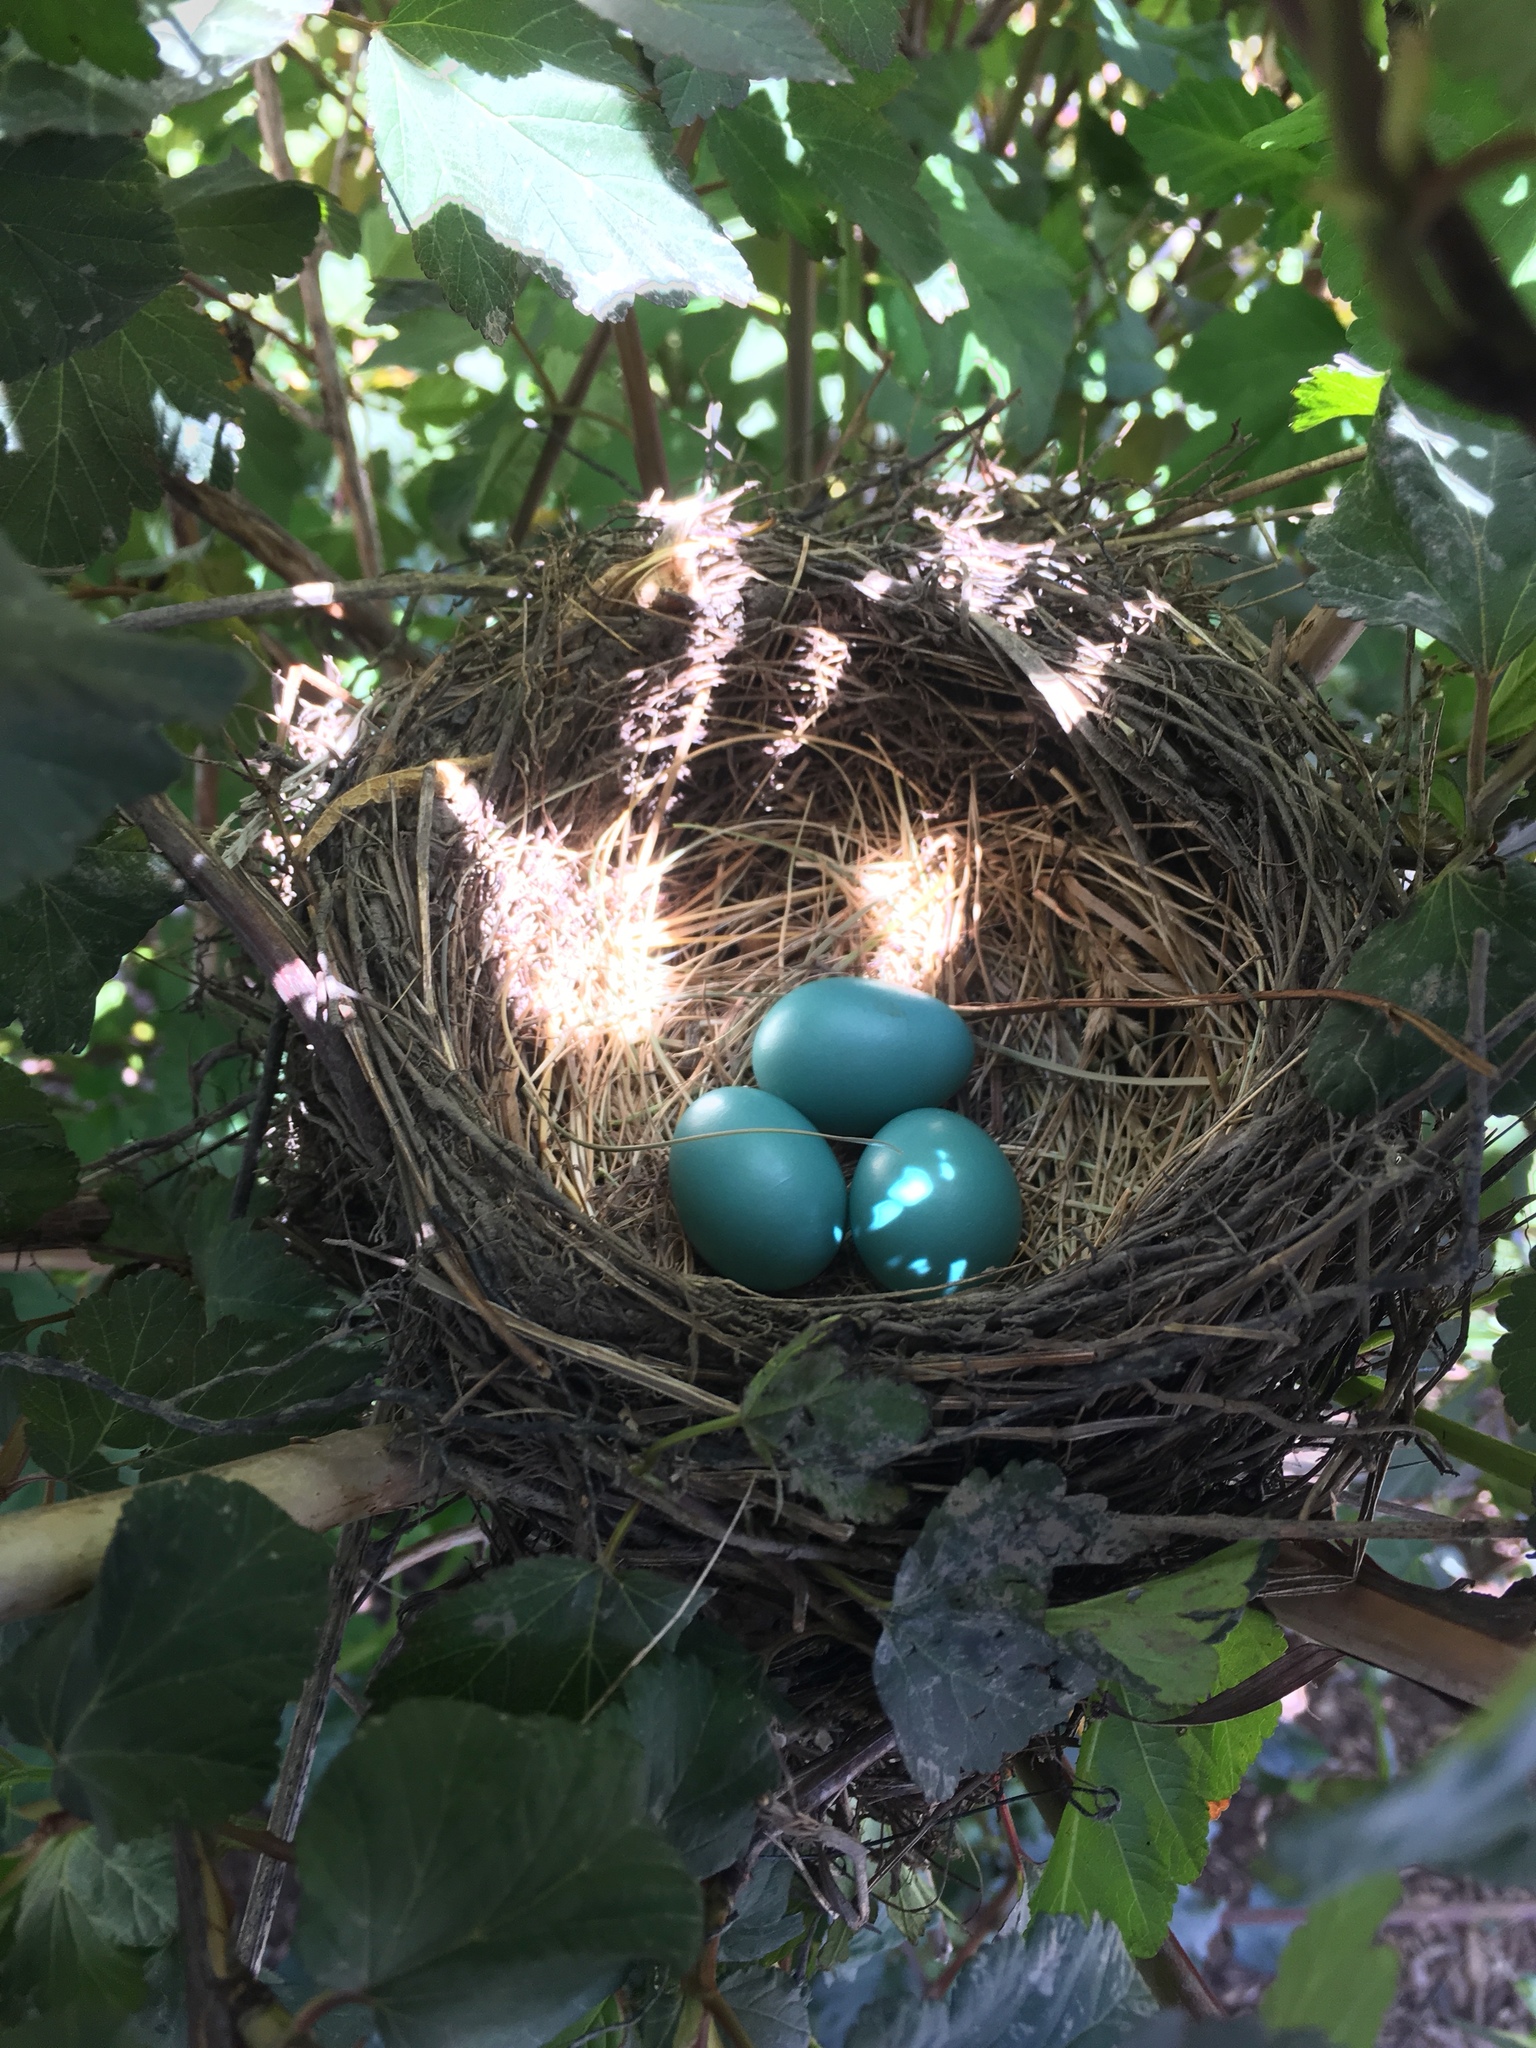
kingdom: Animalia
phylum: Chordata
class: Aves
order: Passeriformes
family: Turdidae
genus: Turdus
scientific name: Turdus migratorius
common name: American robin
